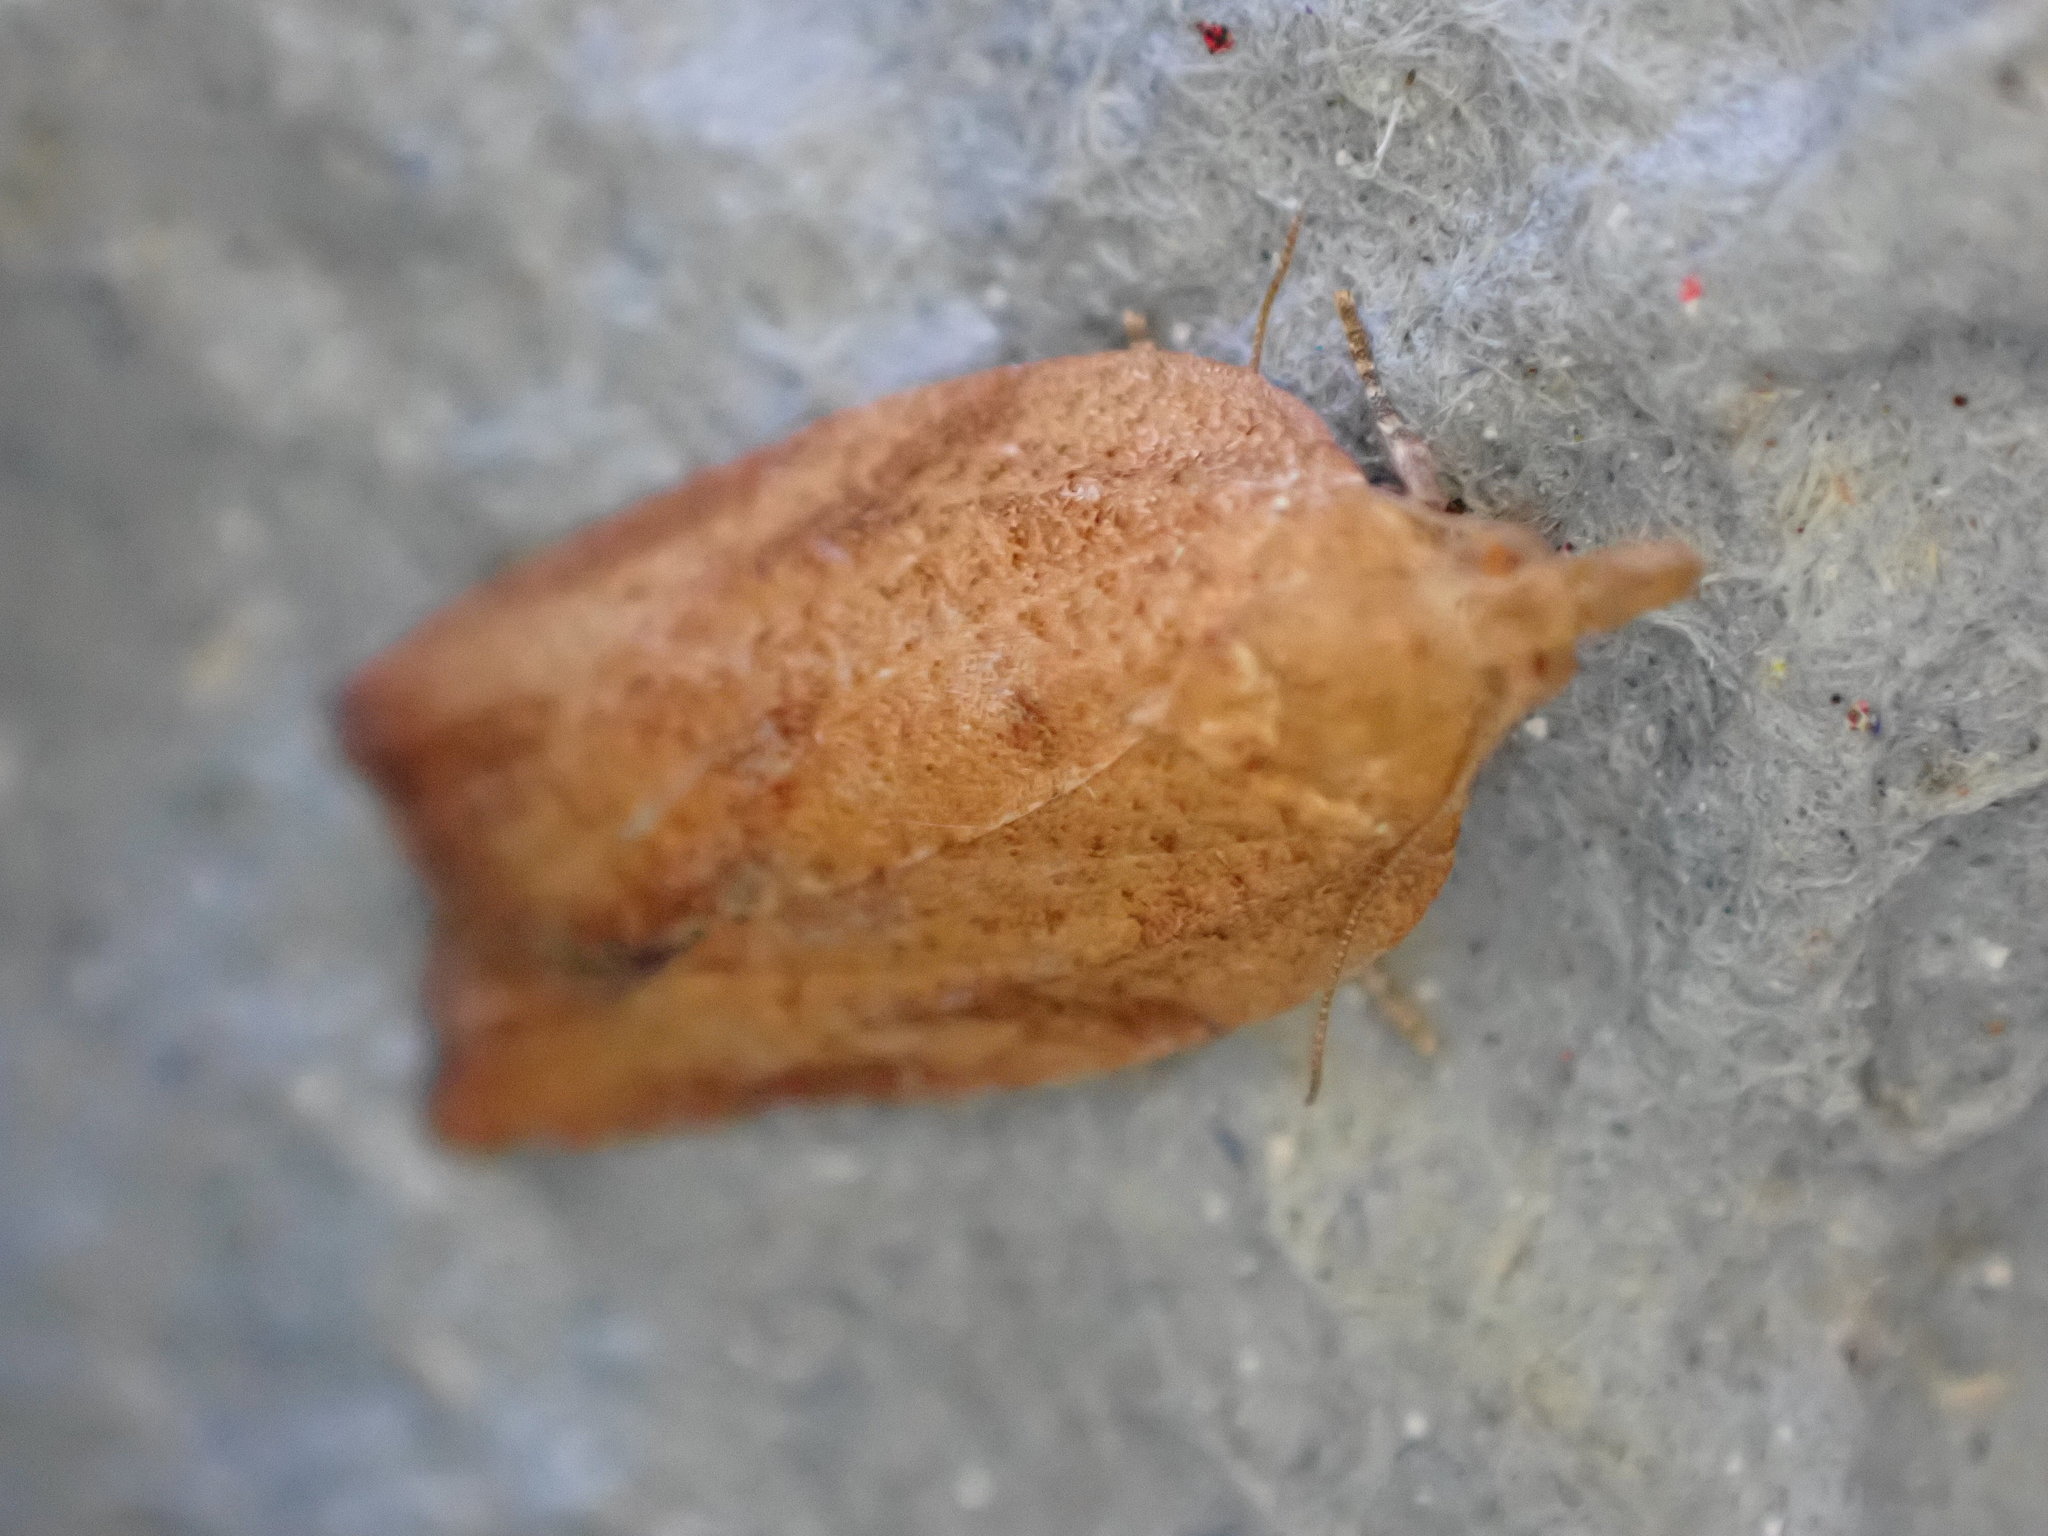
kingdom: Animalia
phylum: Arthropoda
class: Insecta
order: Lepidoptera
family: Tortricidae
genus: Epiphyas
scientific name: Epiphyas postvittana
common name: Light brown apple moth
